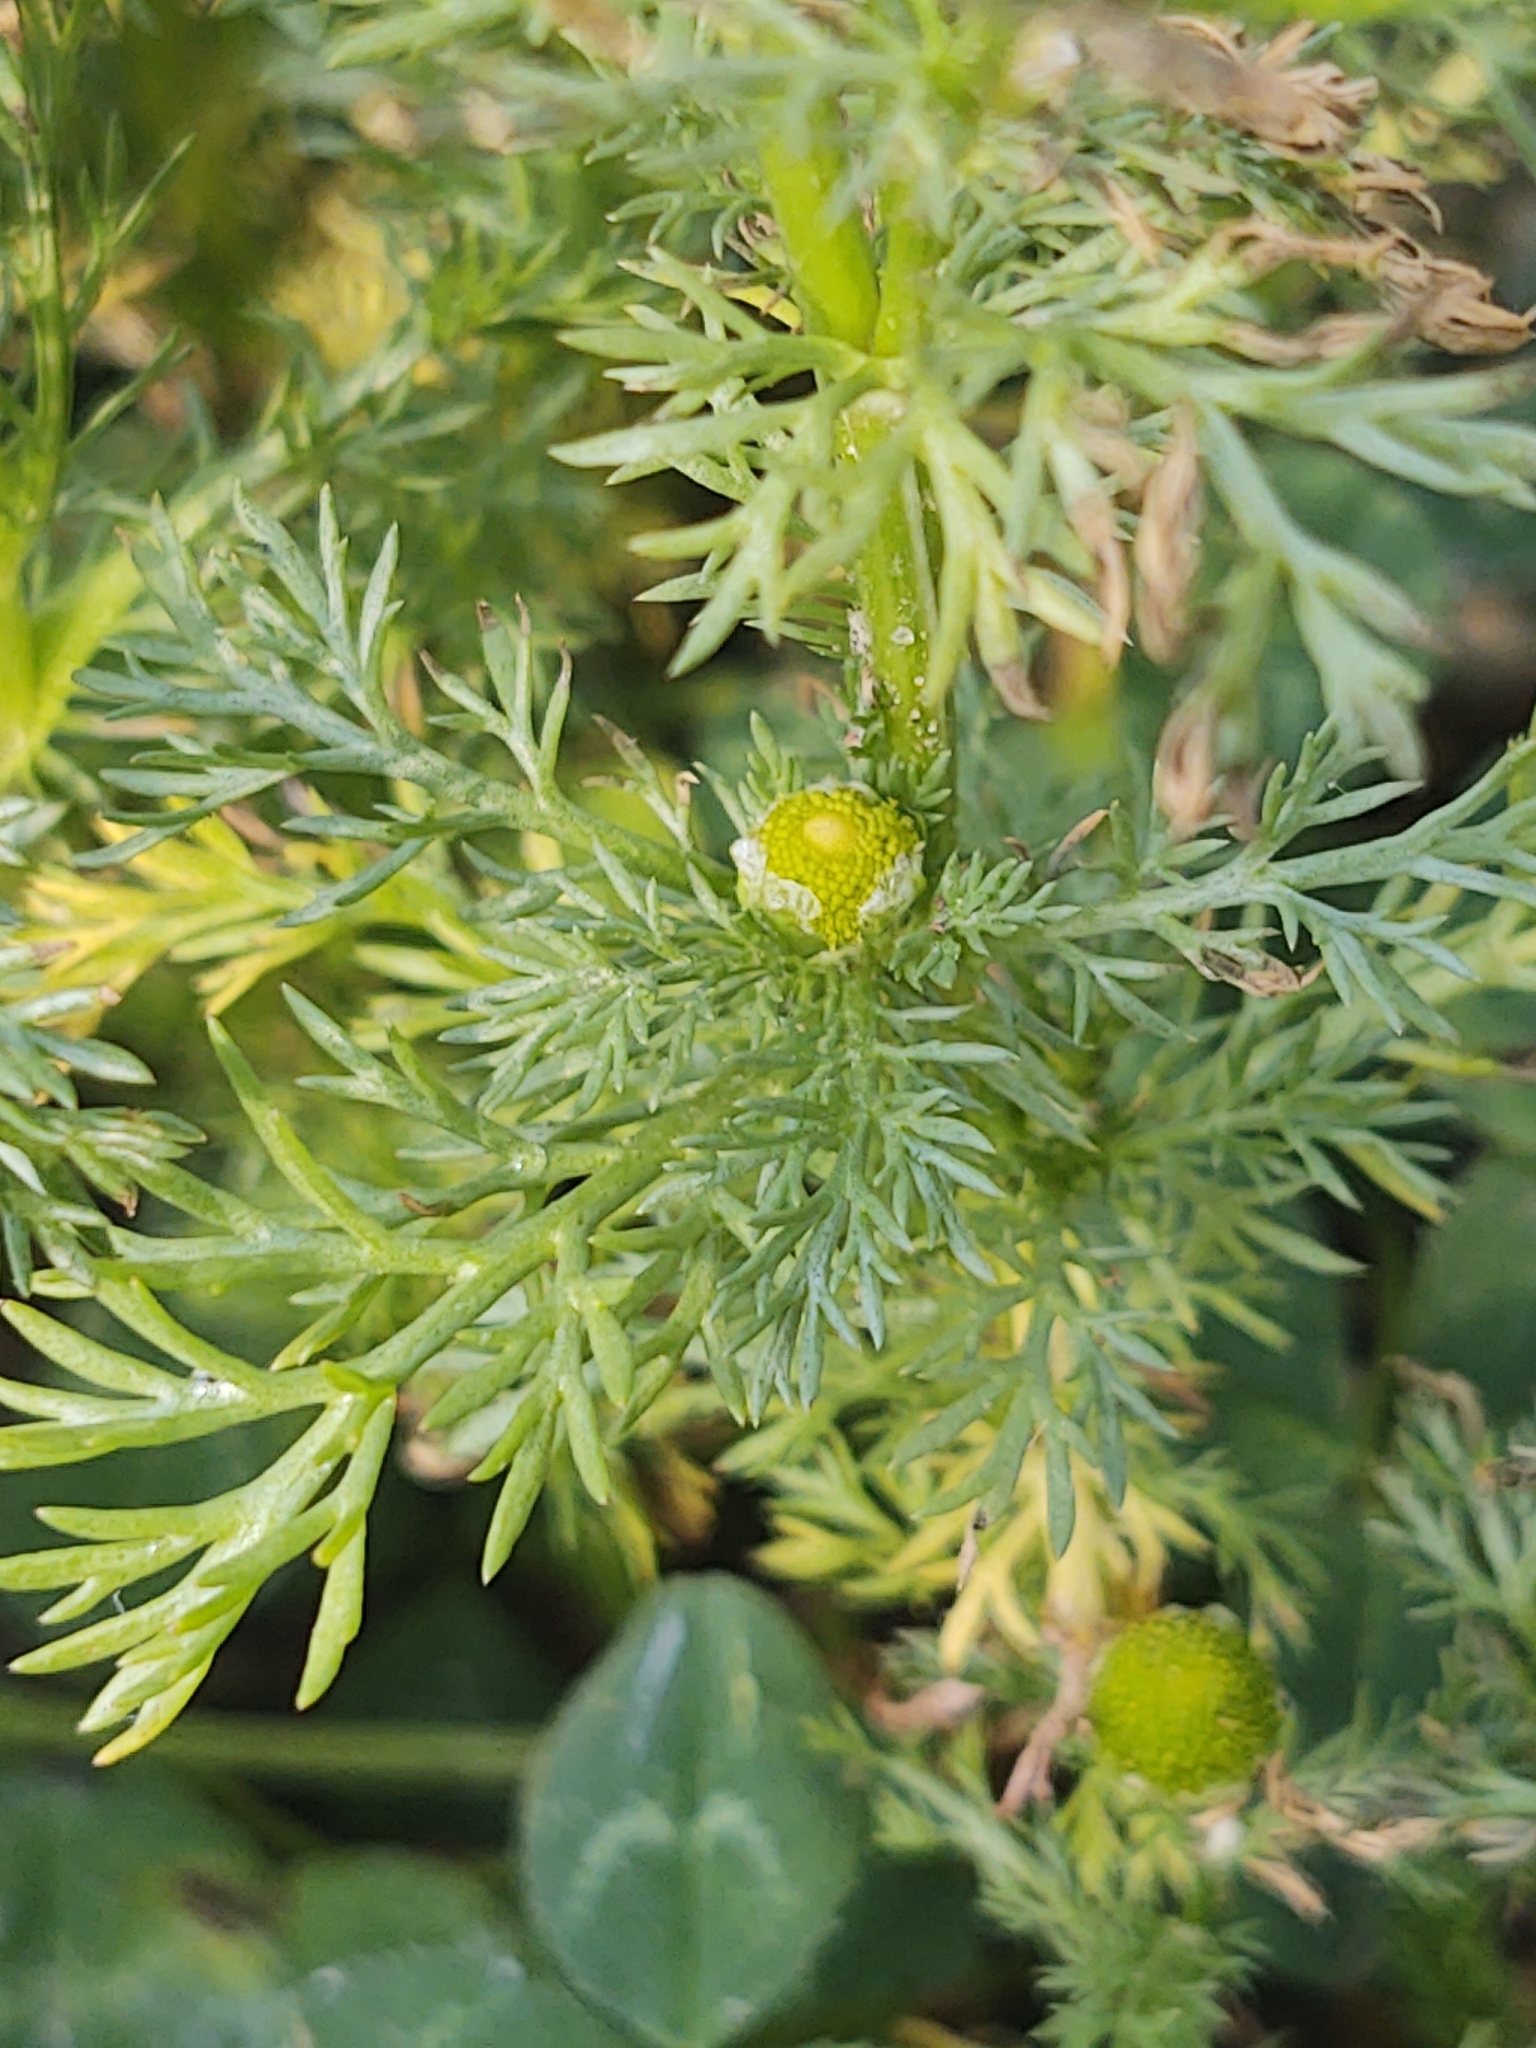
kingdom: Plantae
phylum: Tracheophyta
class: Magnoliopsida
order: Asterales
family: Asteraceae
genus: Matricaria
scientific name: Matricaria discoidea
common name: Disc mayweed
